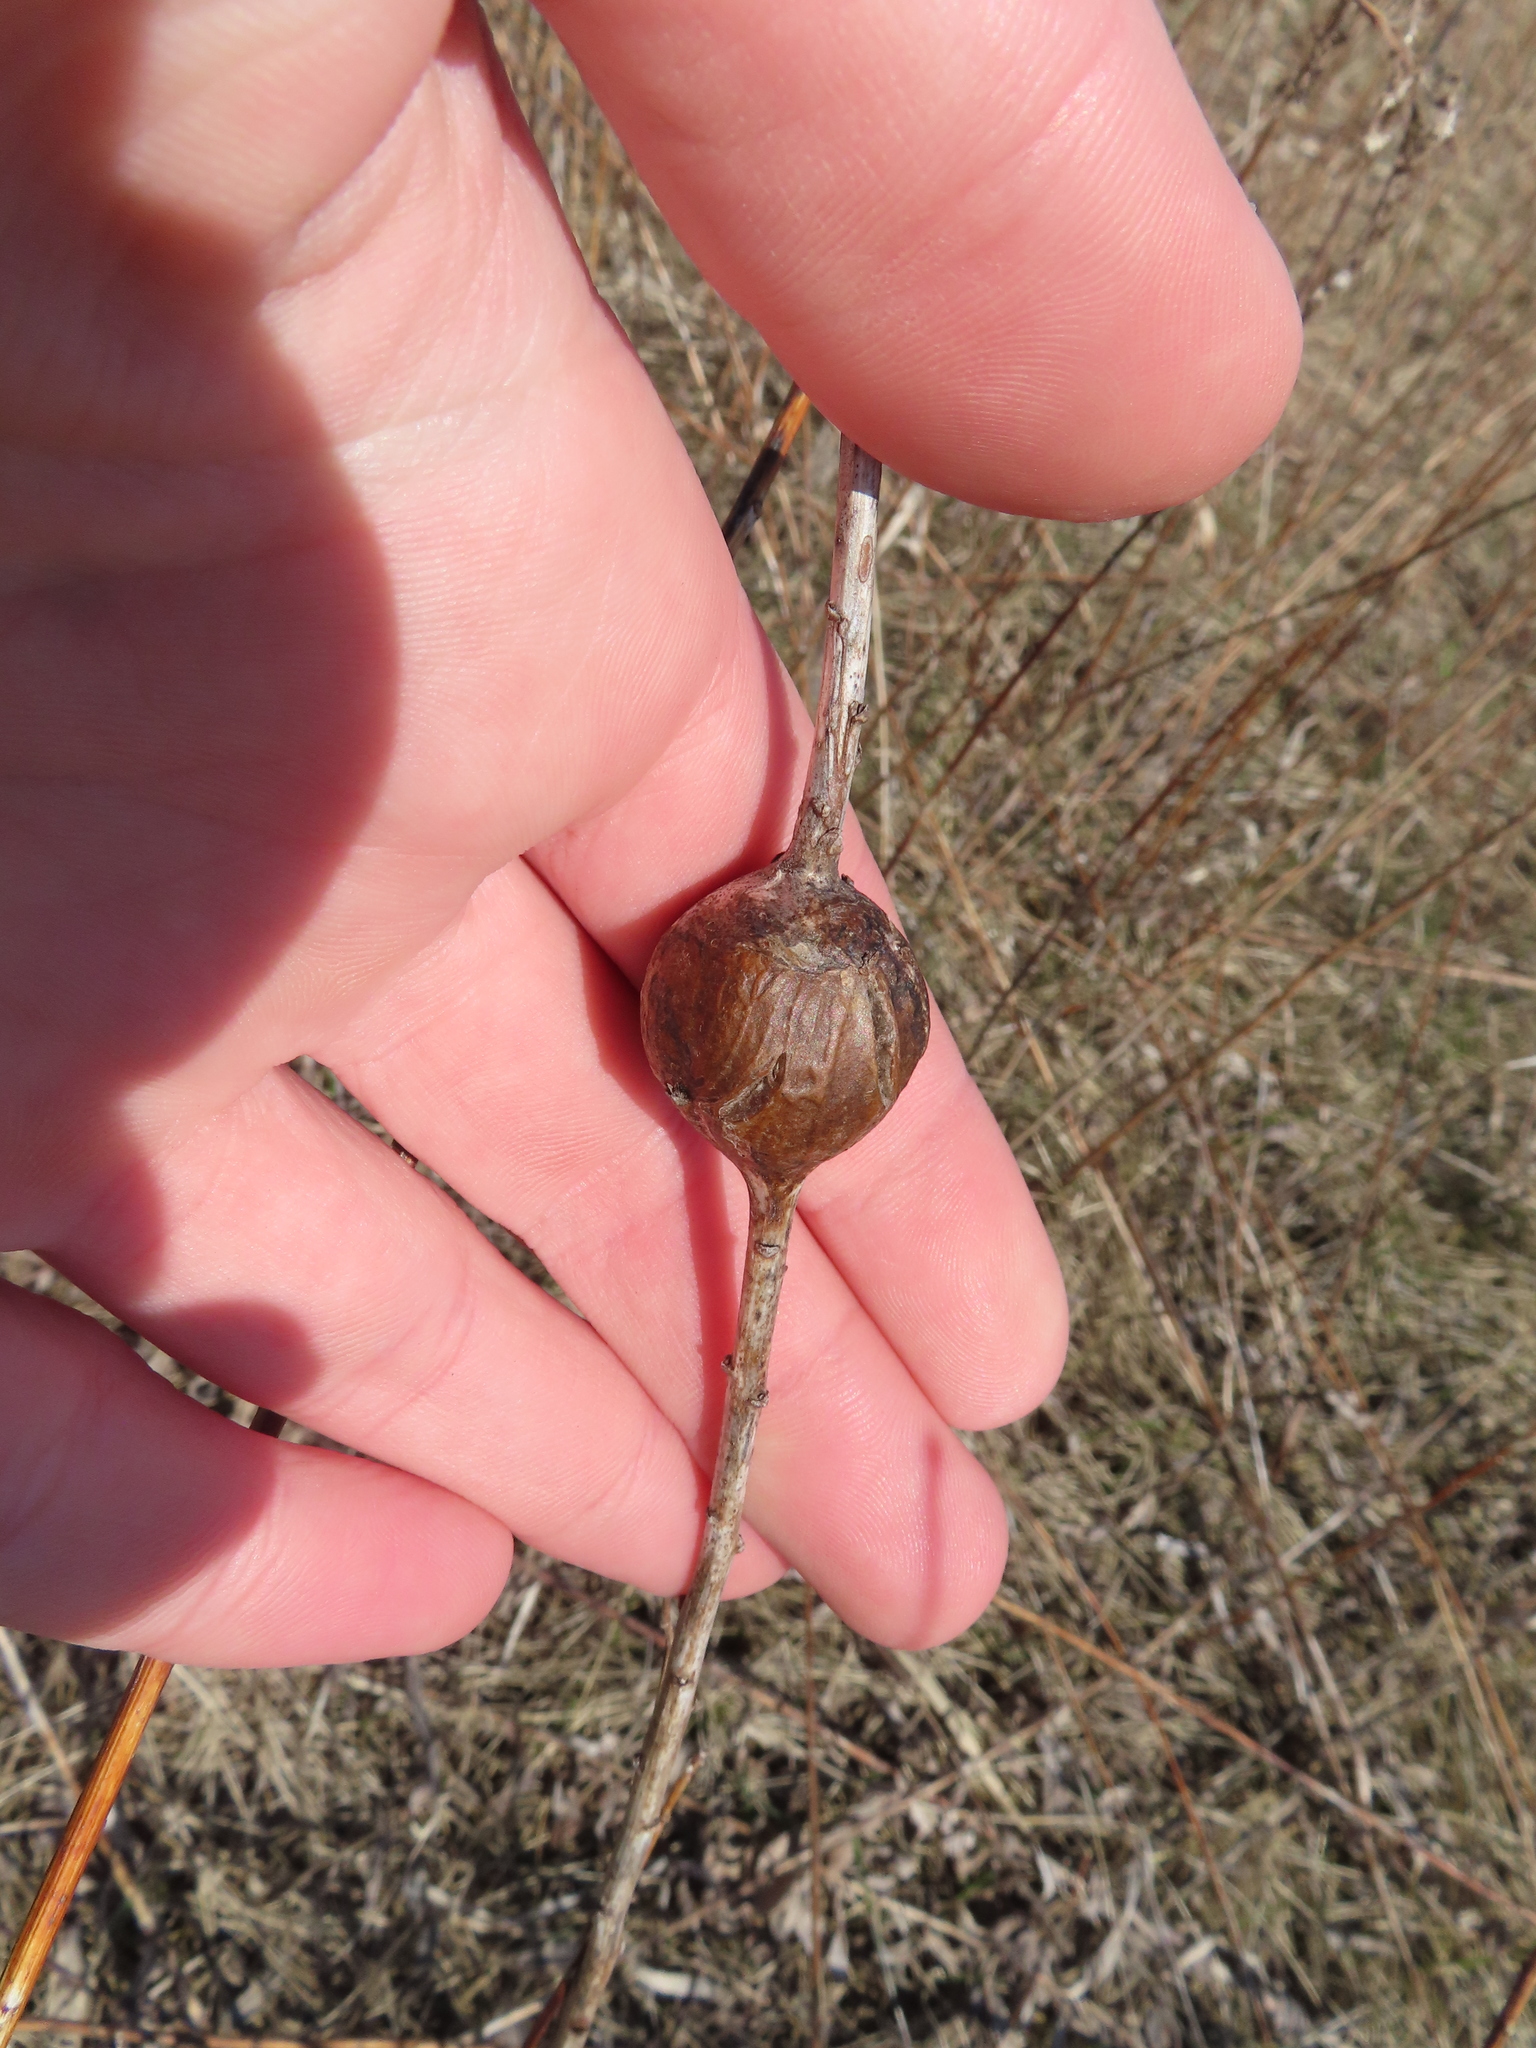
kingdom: Animalia
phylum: Arthropoda
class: Insecta
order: Diptera
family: Tephritidae
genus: Eurosta
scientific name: Eurosta solidaginis
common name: Goldenrod gall fly
